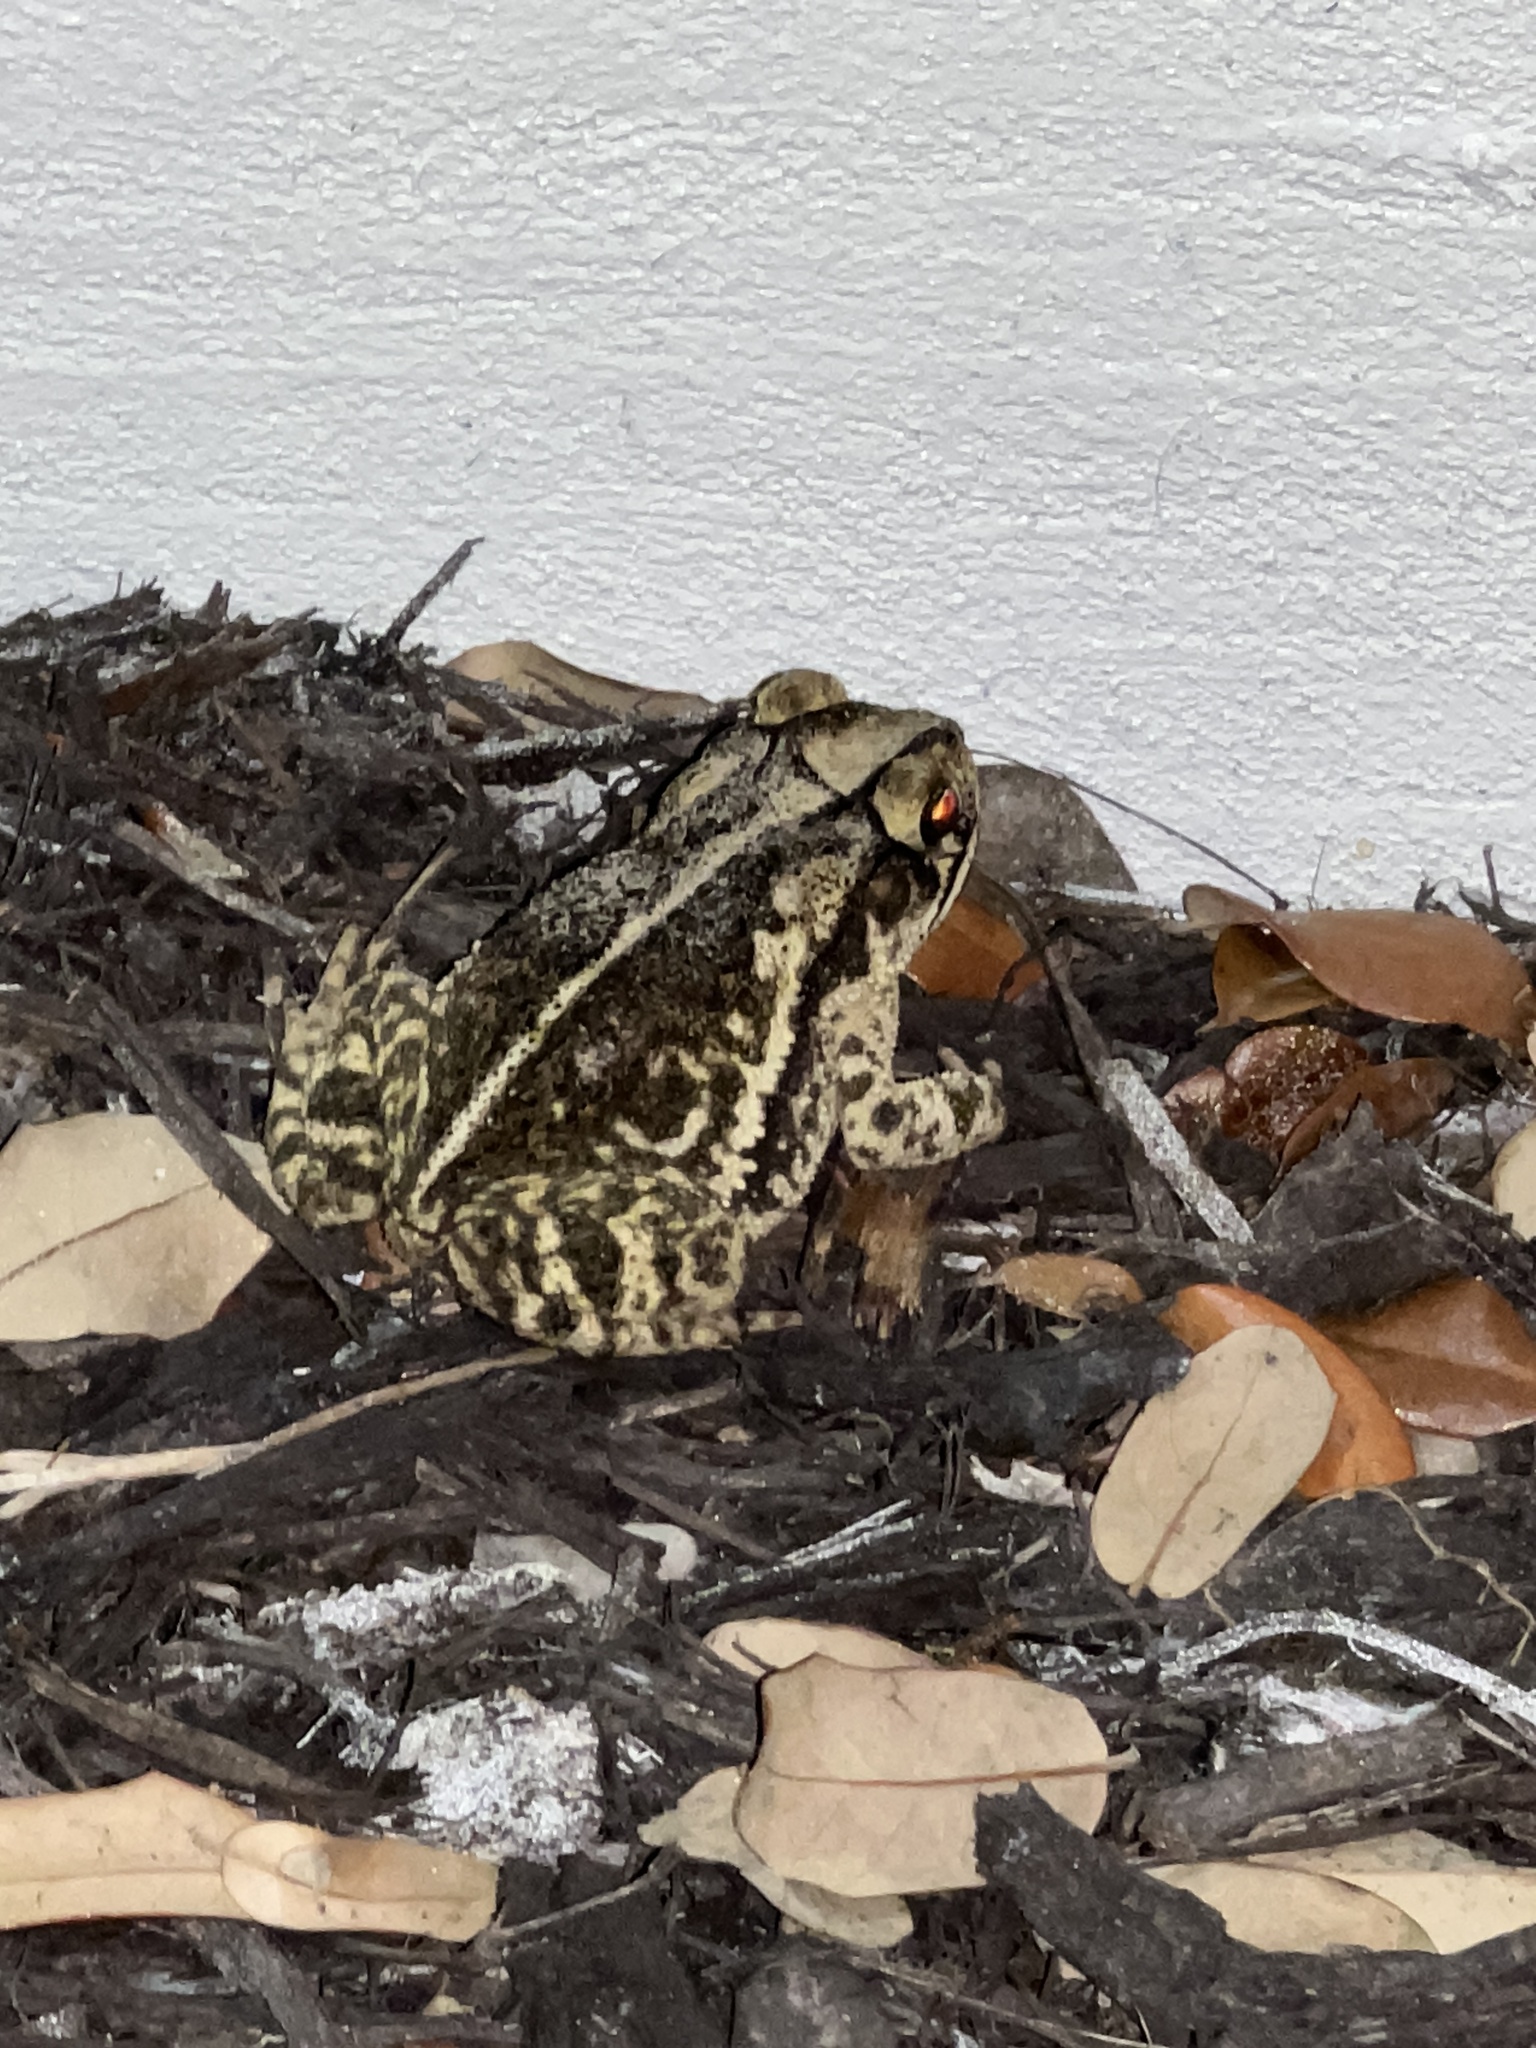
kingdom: Animalia
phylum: Chordata
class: Amphibia
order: Anura
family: Bufonidae
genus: Incilius
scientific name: Incilius nebulifer
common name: Gulf coast toad
